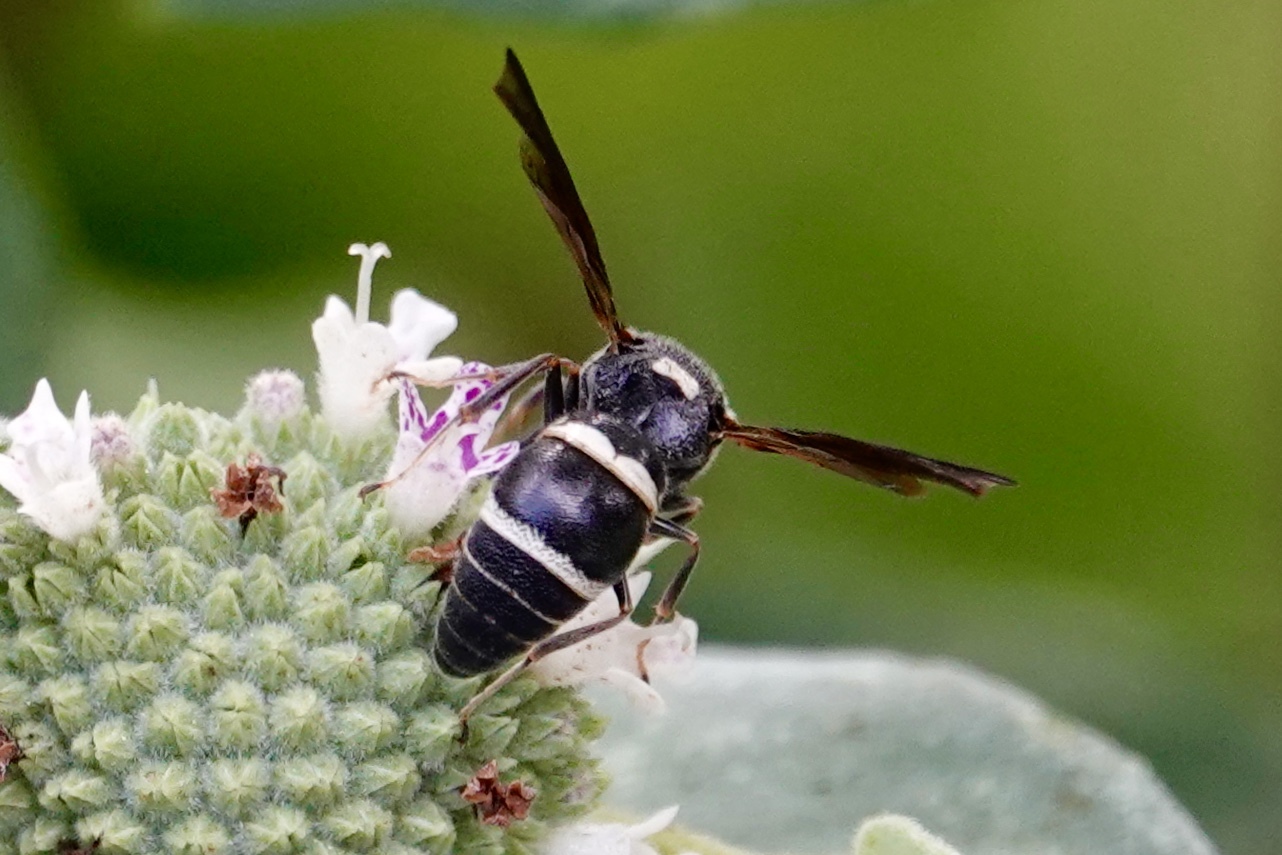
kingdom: Animalia
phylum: Arthropoda
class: Insecta
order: Hymenoptera
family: Eumenidae
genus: Euodynerus
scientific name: Euodynerus megaera
